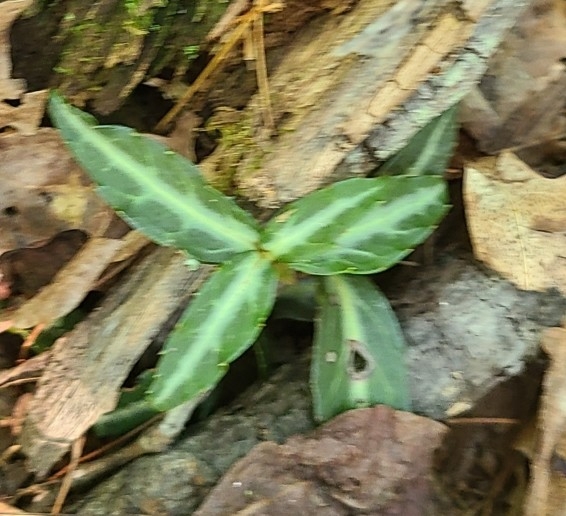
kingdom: Plantae
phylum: Tracheophyta
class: Magnoliopsida
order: Ericales
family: Ericaceae
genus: Chimaphila
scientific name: Chimaphila maculata
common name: Spotted pipsissewa
